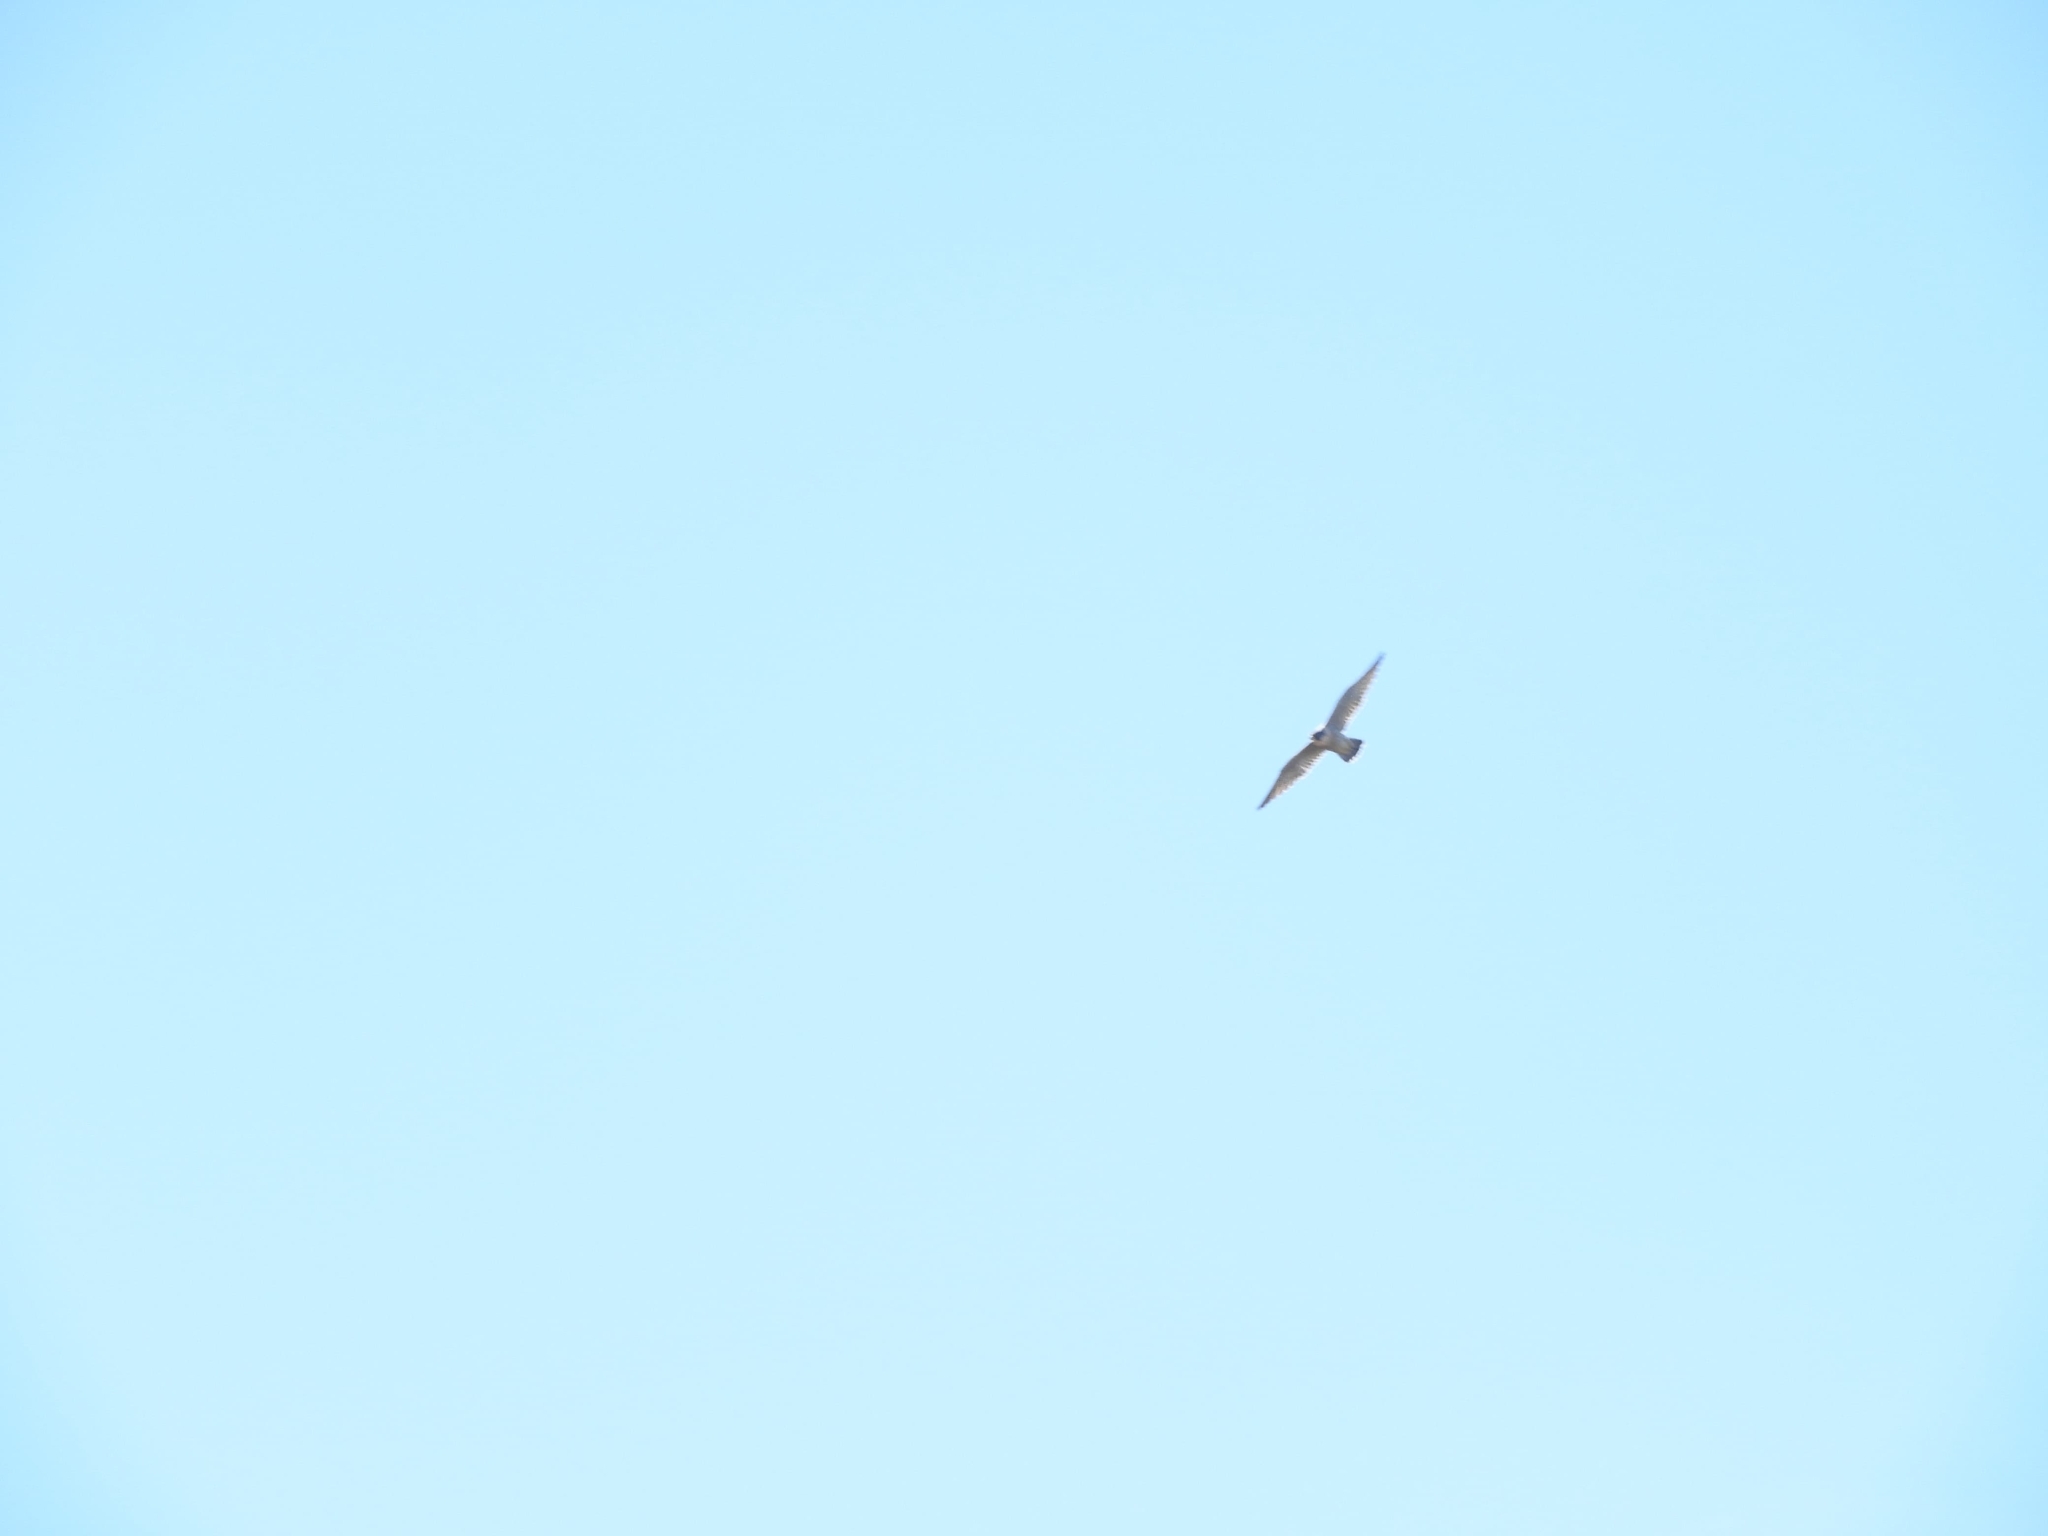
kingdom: Animalia
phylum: Chordata
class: Aves
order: Falconiformes
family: Falconidae
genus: Falco
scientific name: Falco peregrinus
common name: Peregrine falcon
